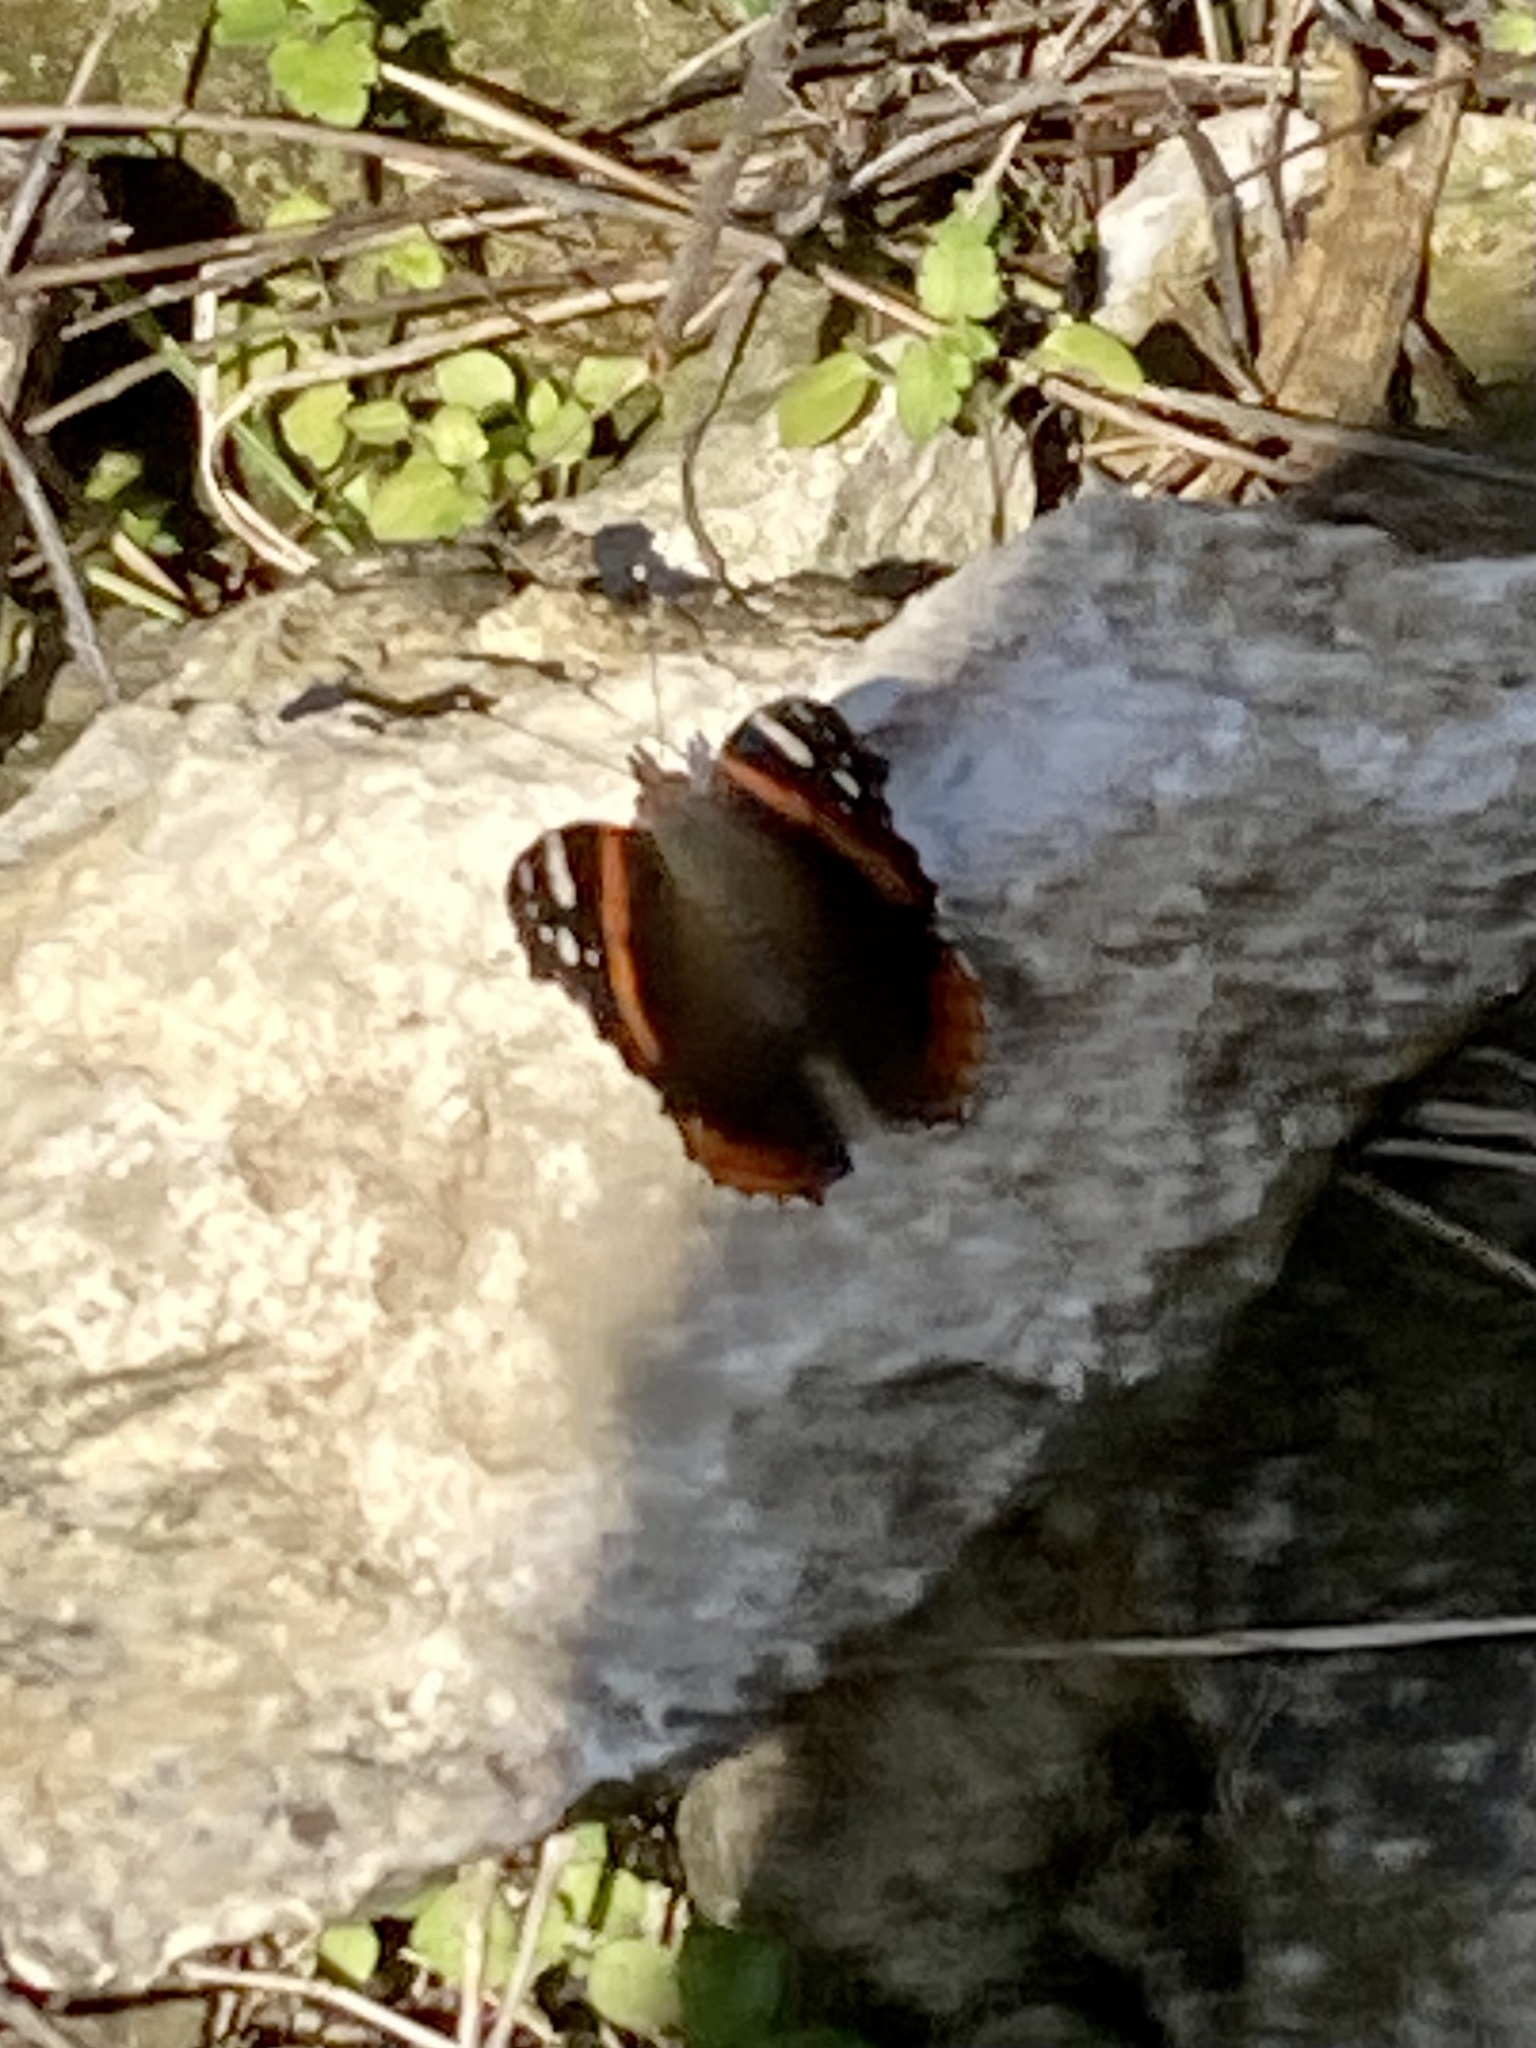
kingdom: Animalia
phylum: Arthropoda
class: Insecta
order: Lepidoptera
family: Nymphalidae
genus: Vanessa
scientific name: Vanessa atalanta
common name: Red admiral
